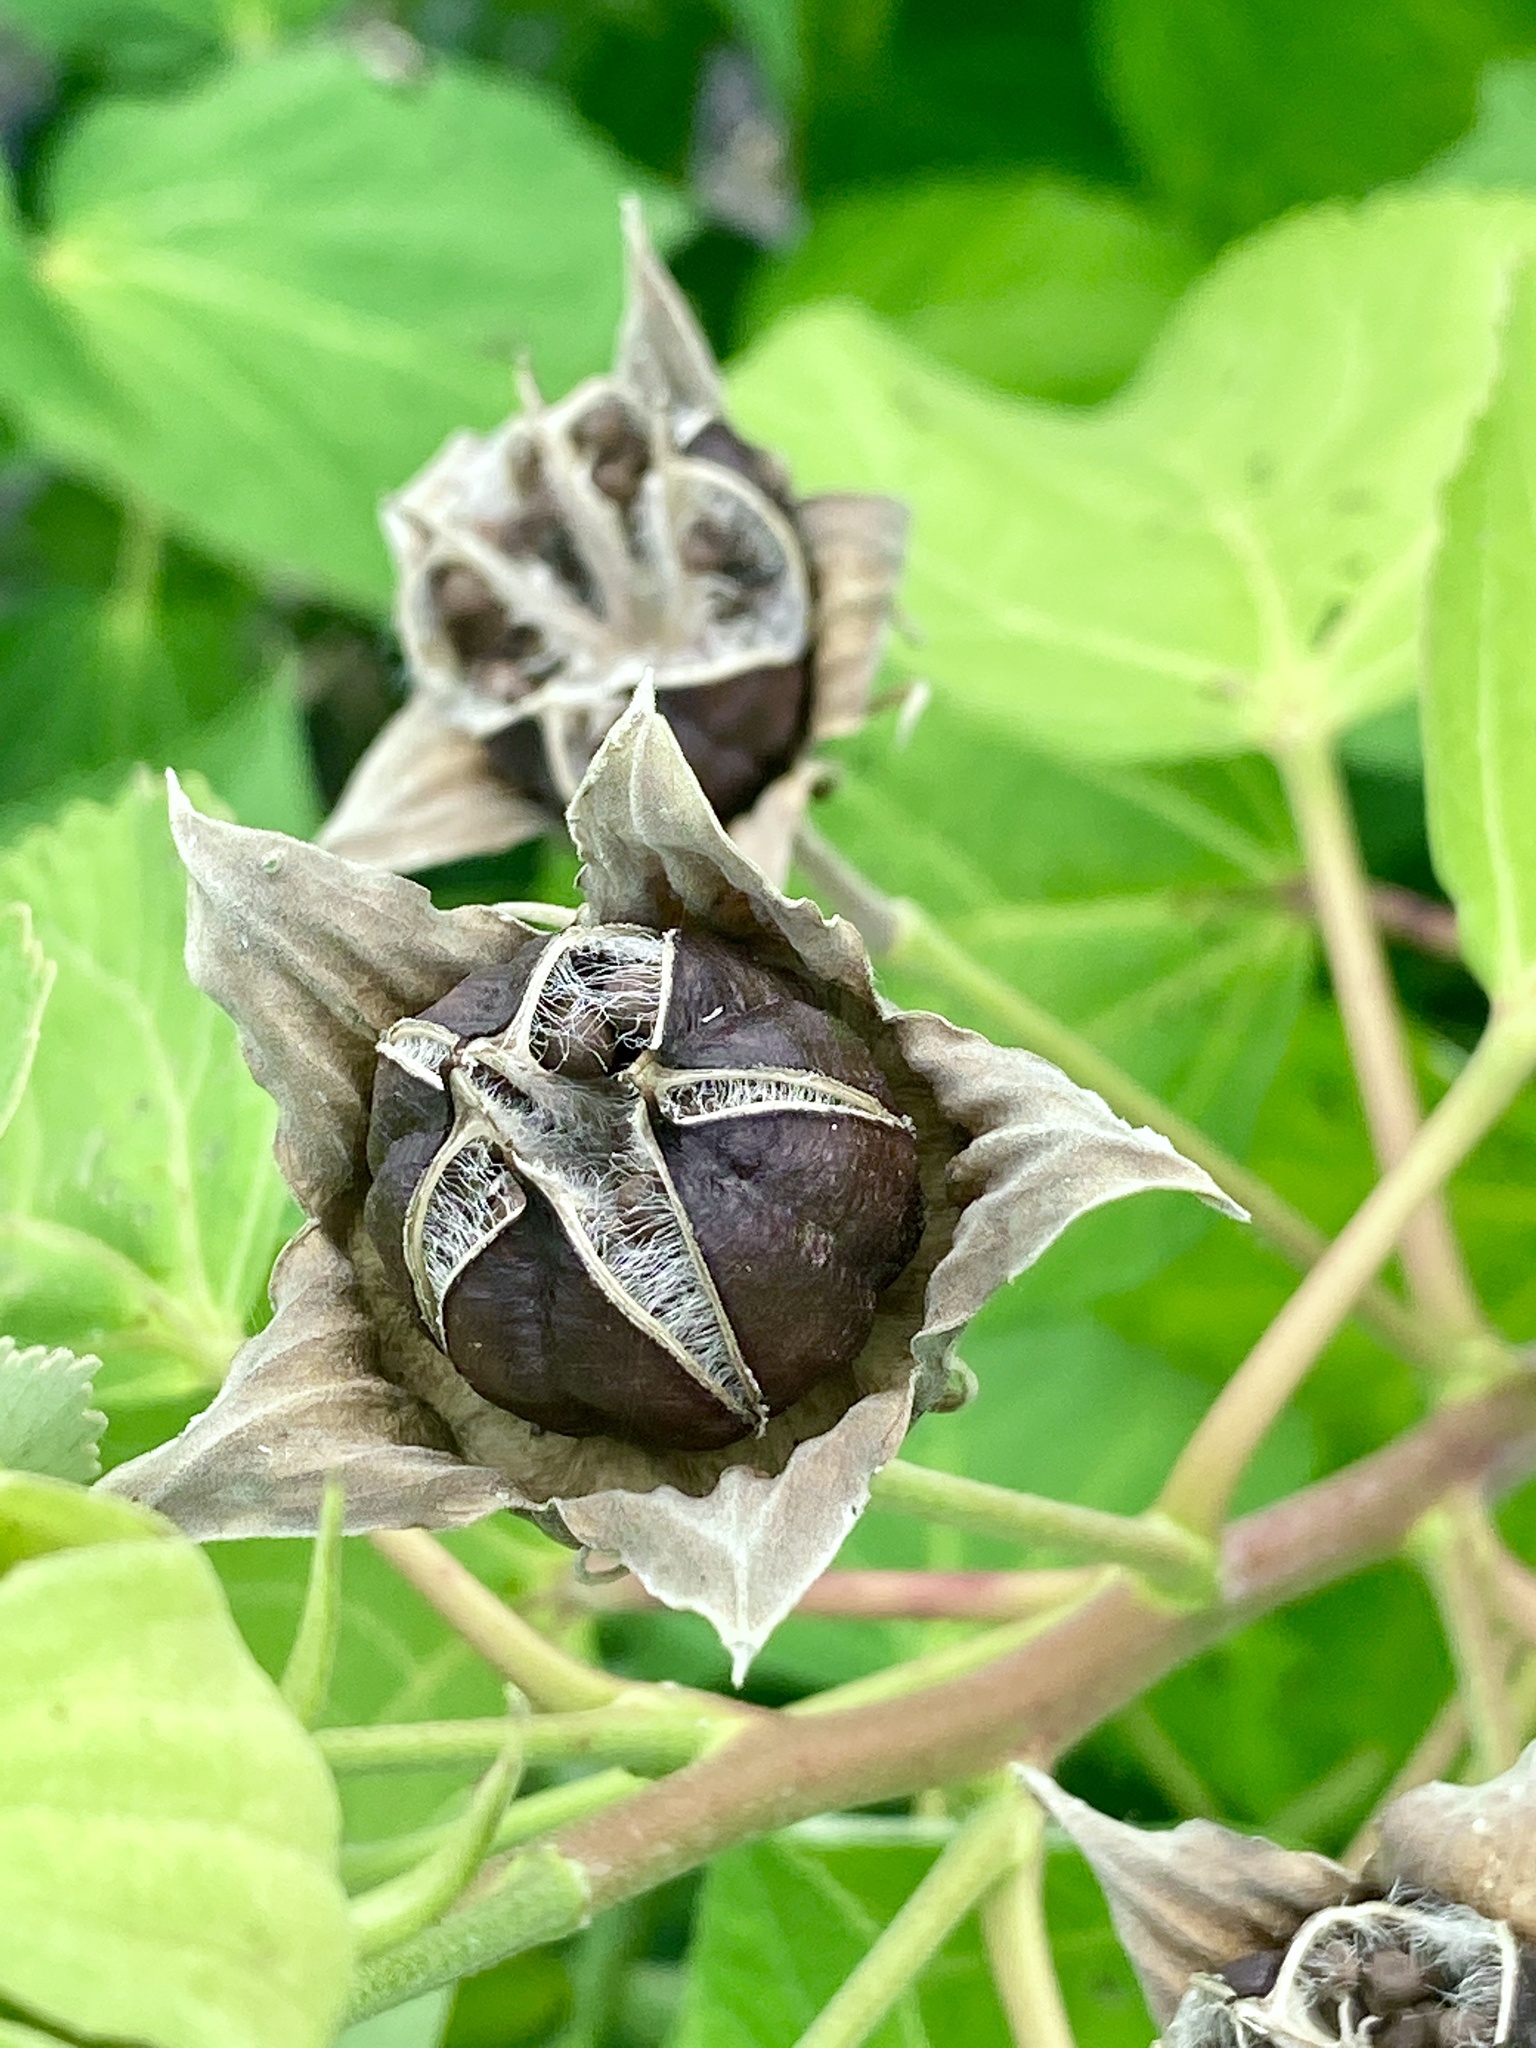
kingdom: Plantae
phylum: Tracheophyta
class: Magnoliopsida
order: Malvales
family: Malvaceae
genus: Hibiscus
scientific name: Hibiscus moscheutos
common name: Common rose-mallow
